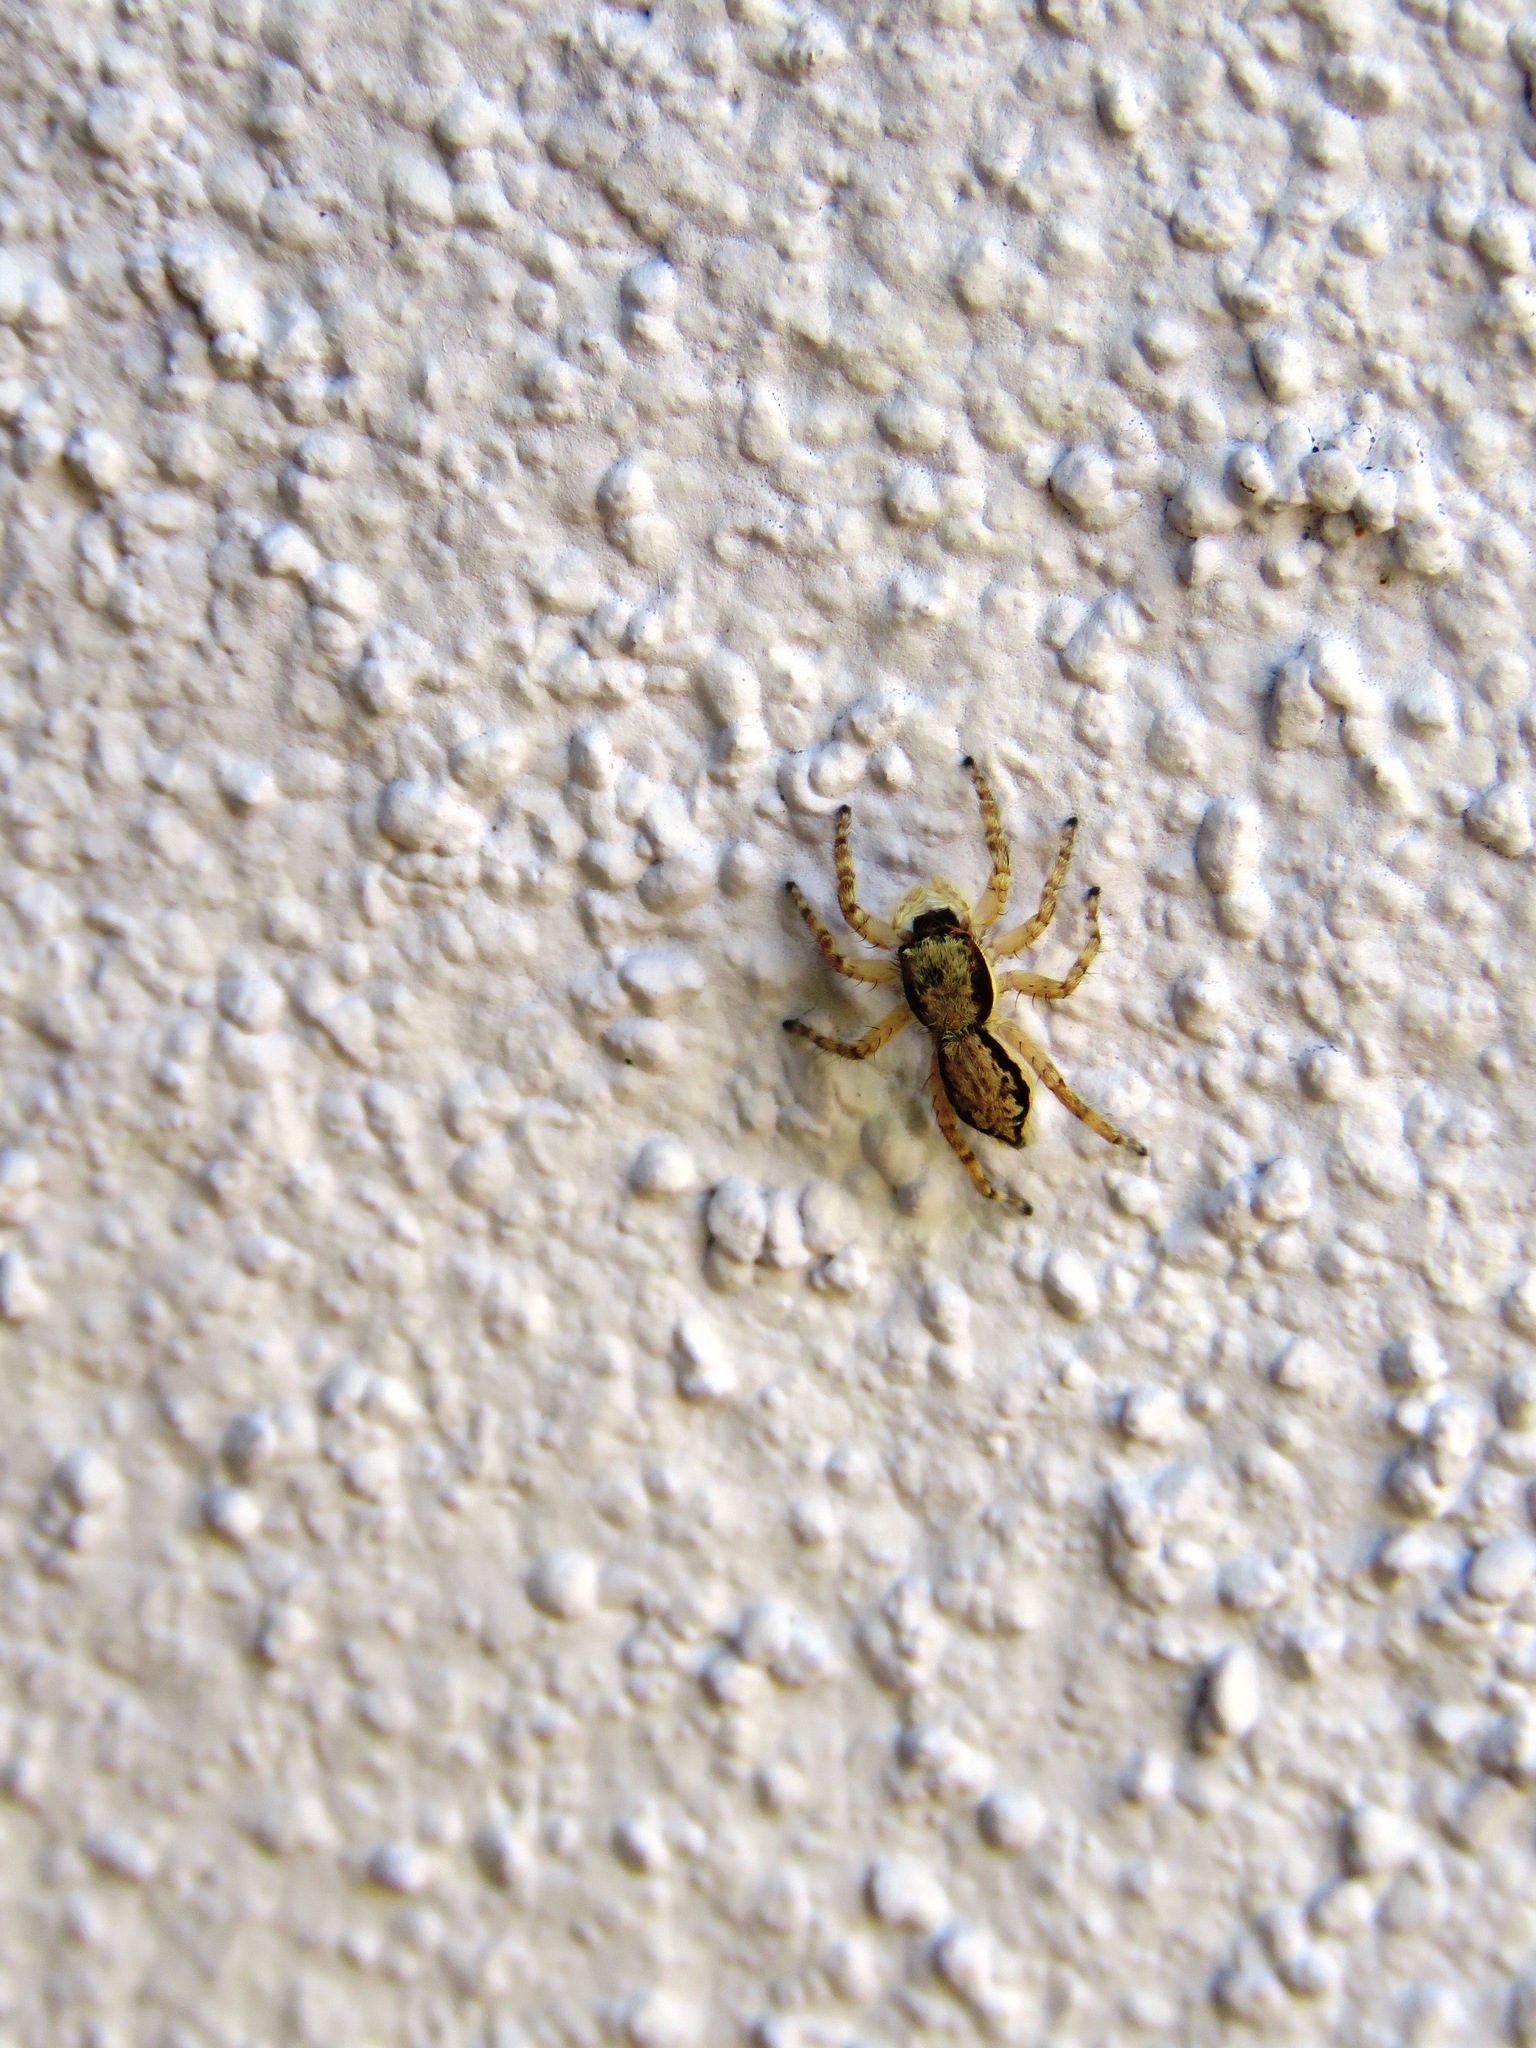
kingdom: Animalia
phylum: Arthropoda
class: Arachnida
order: Araneae
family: Salticidae
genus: Menemerus
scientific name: Menemerus bivittatus
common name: Gray wall jumper
